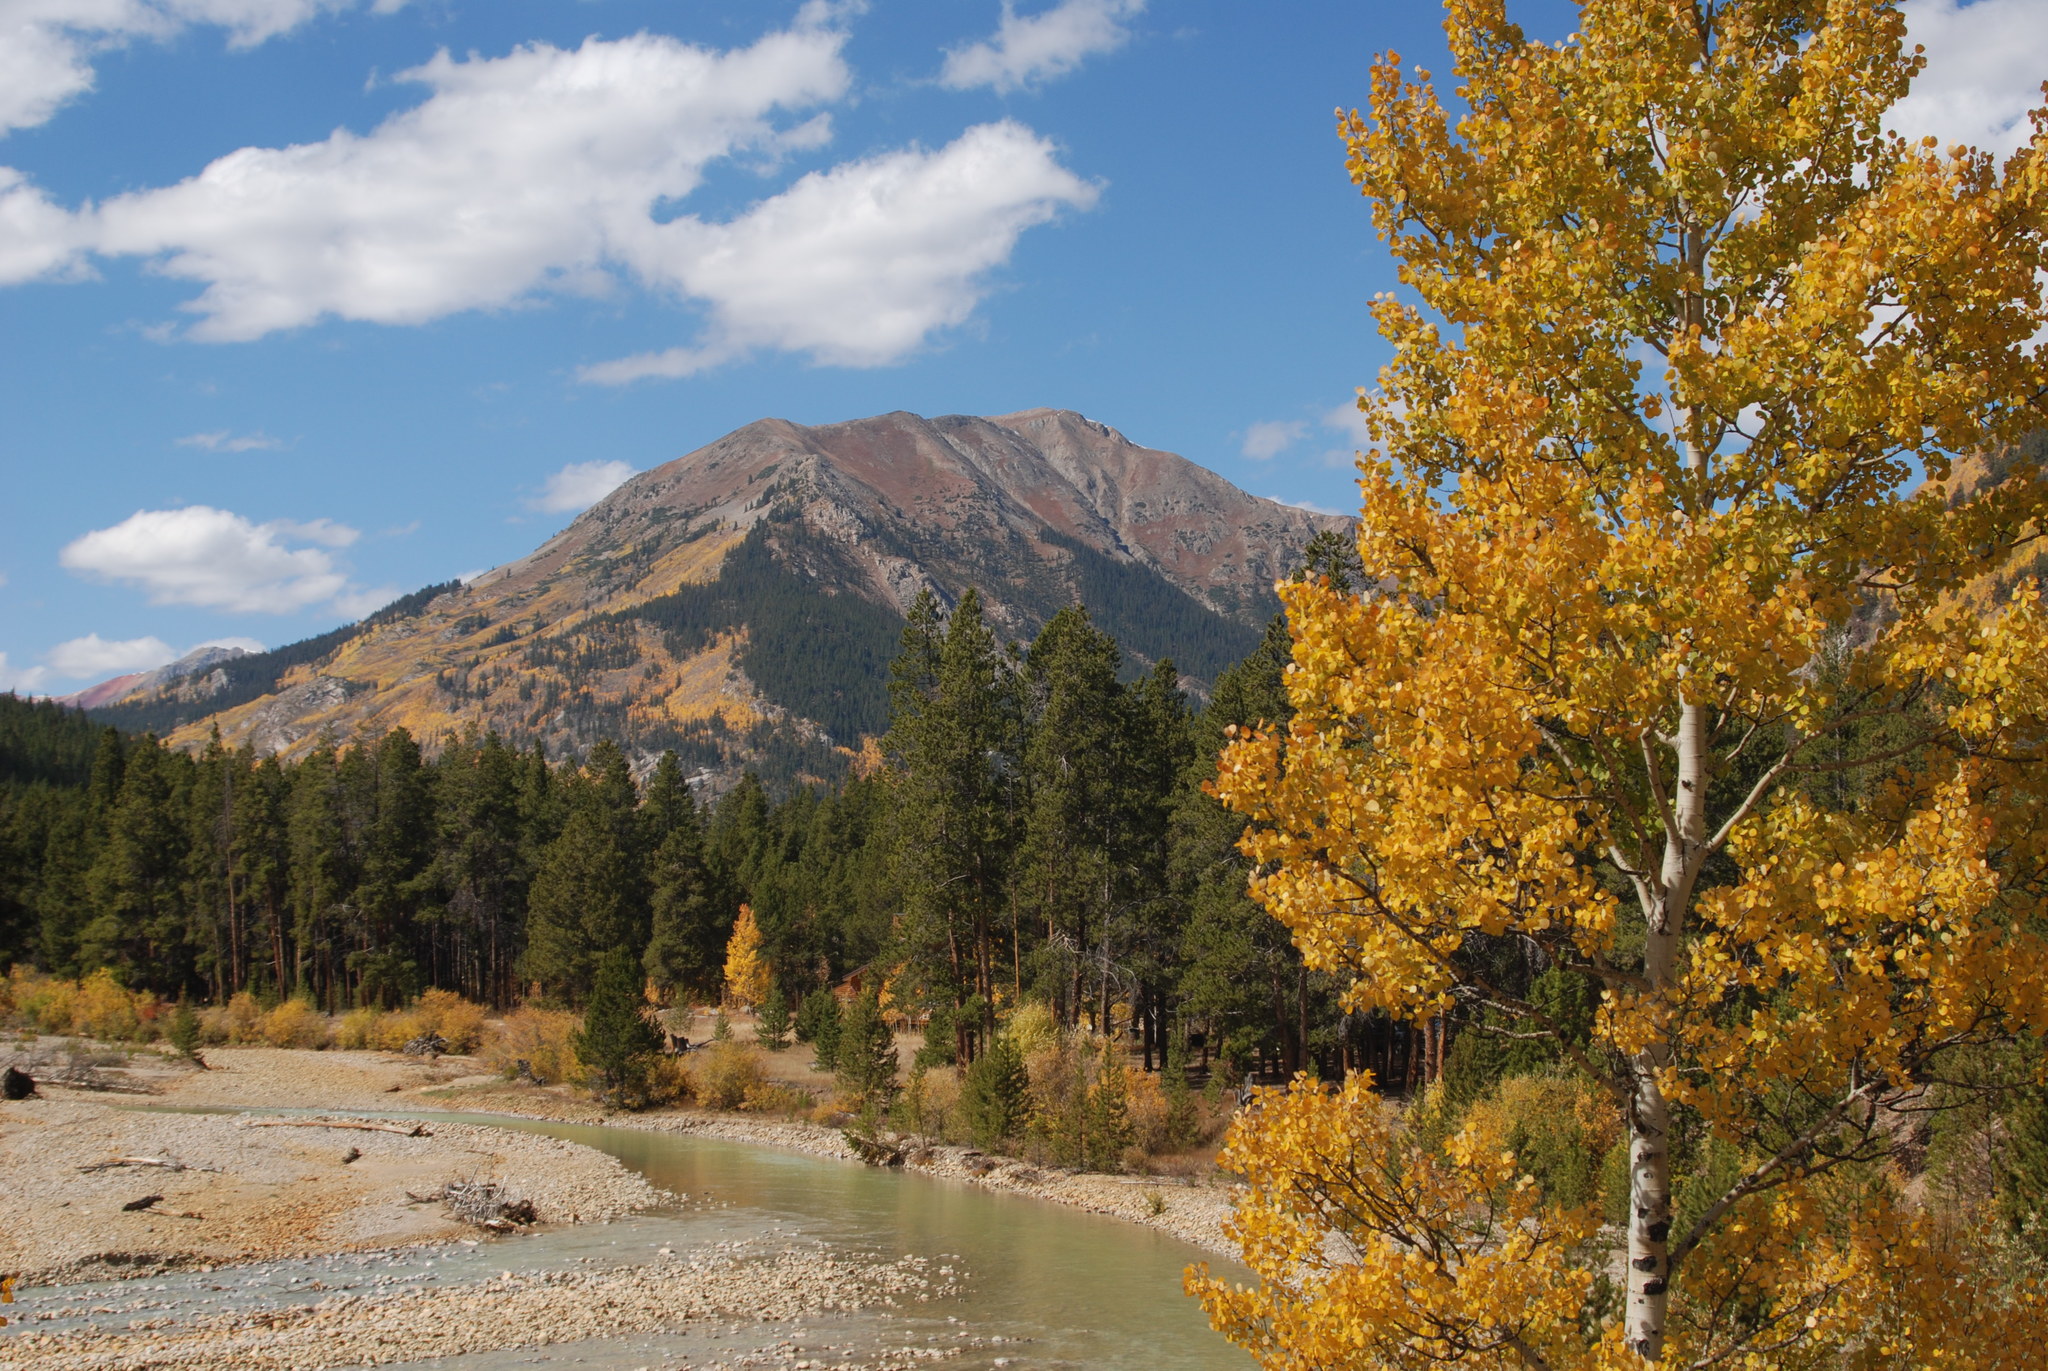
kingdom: Plantae
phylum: Tracheophyta
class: Magnoliopsida
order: Malpighiales
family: Salicaceae
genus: Populus
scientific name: Populus tremuloides
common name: Quaking aspen
